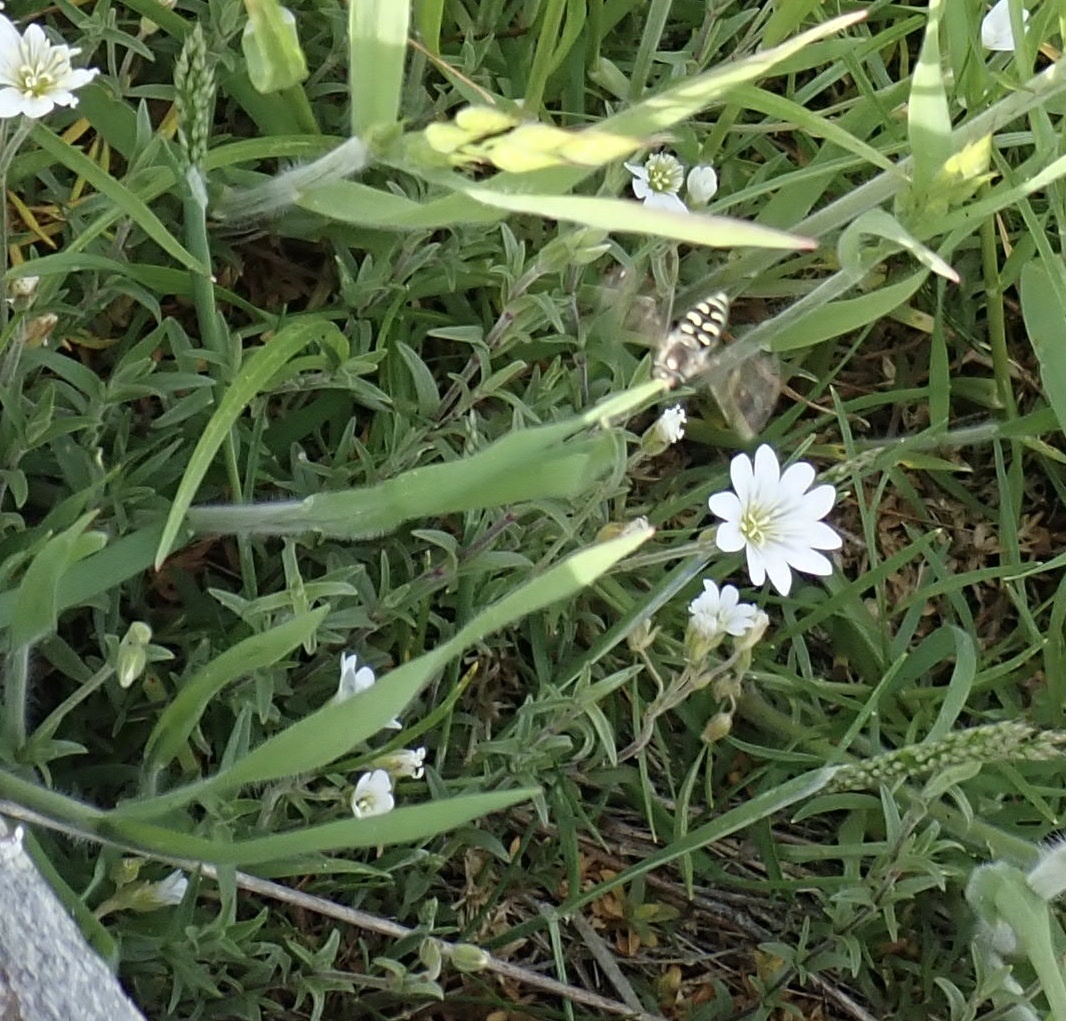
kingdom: Animalia
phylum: Arthropoda
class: Insecta
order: Diptera
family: Syrphidae
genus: Eupeodes
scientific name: Eupeodes volucris
